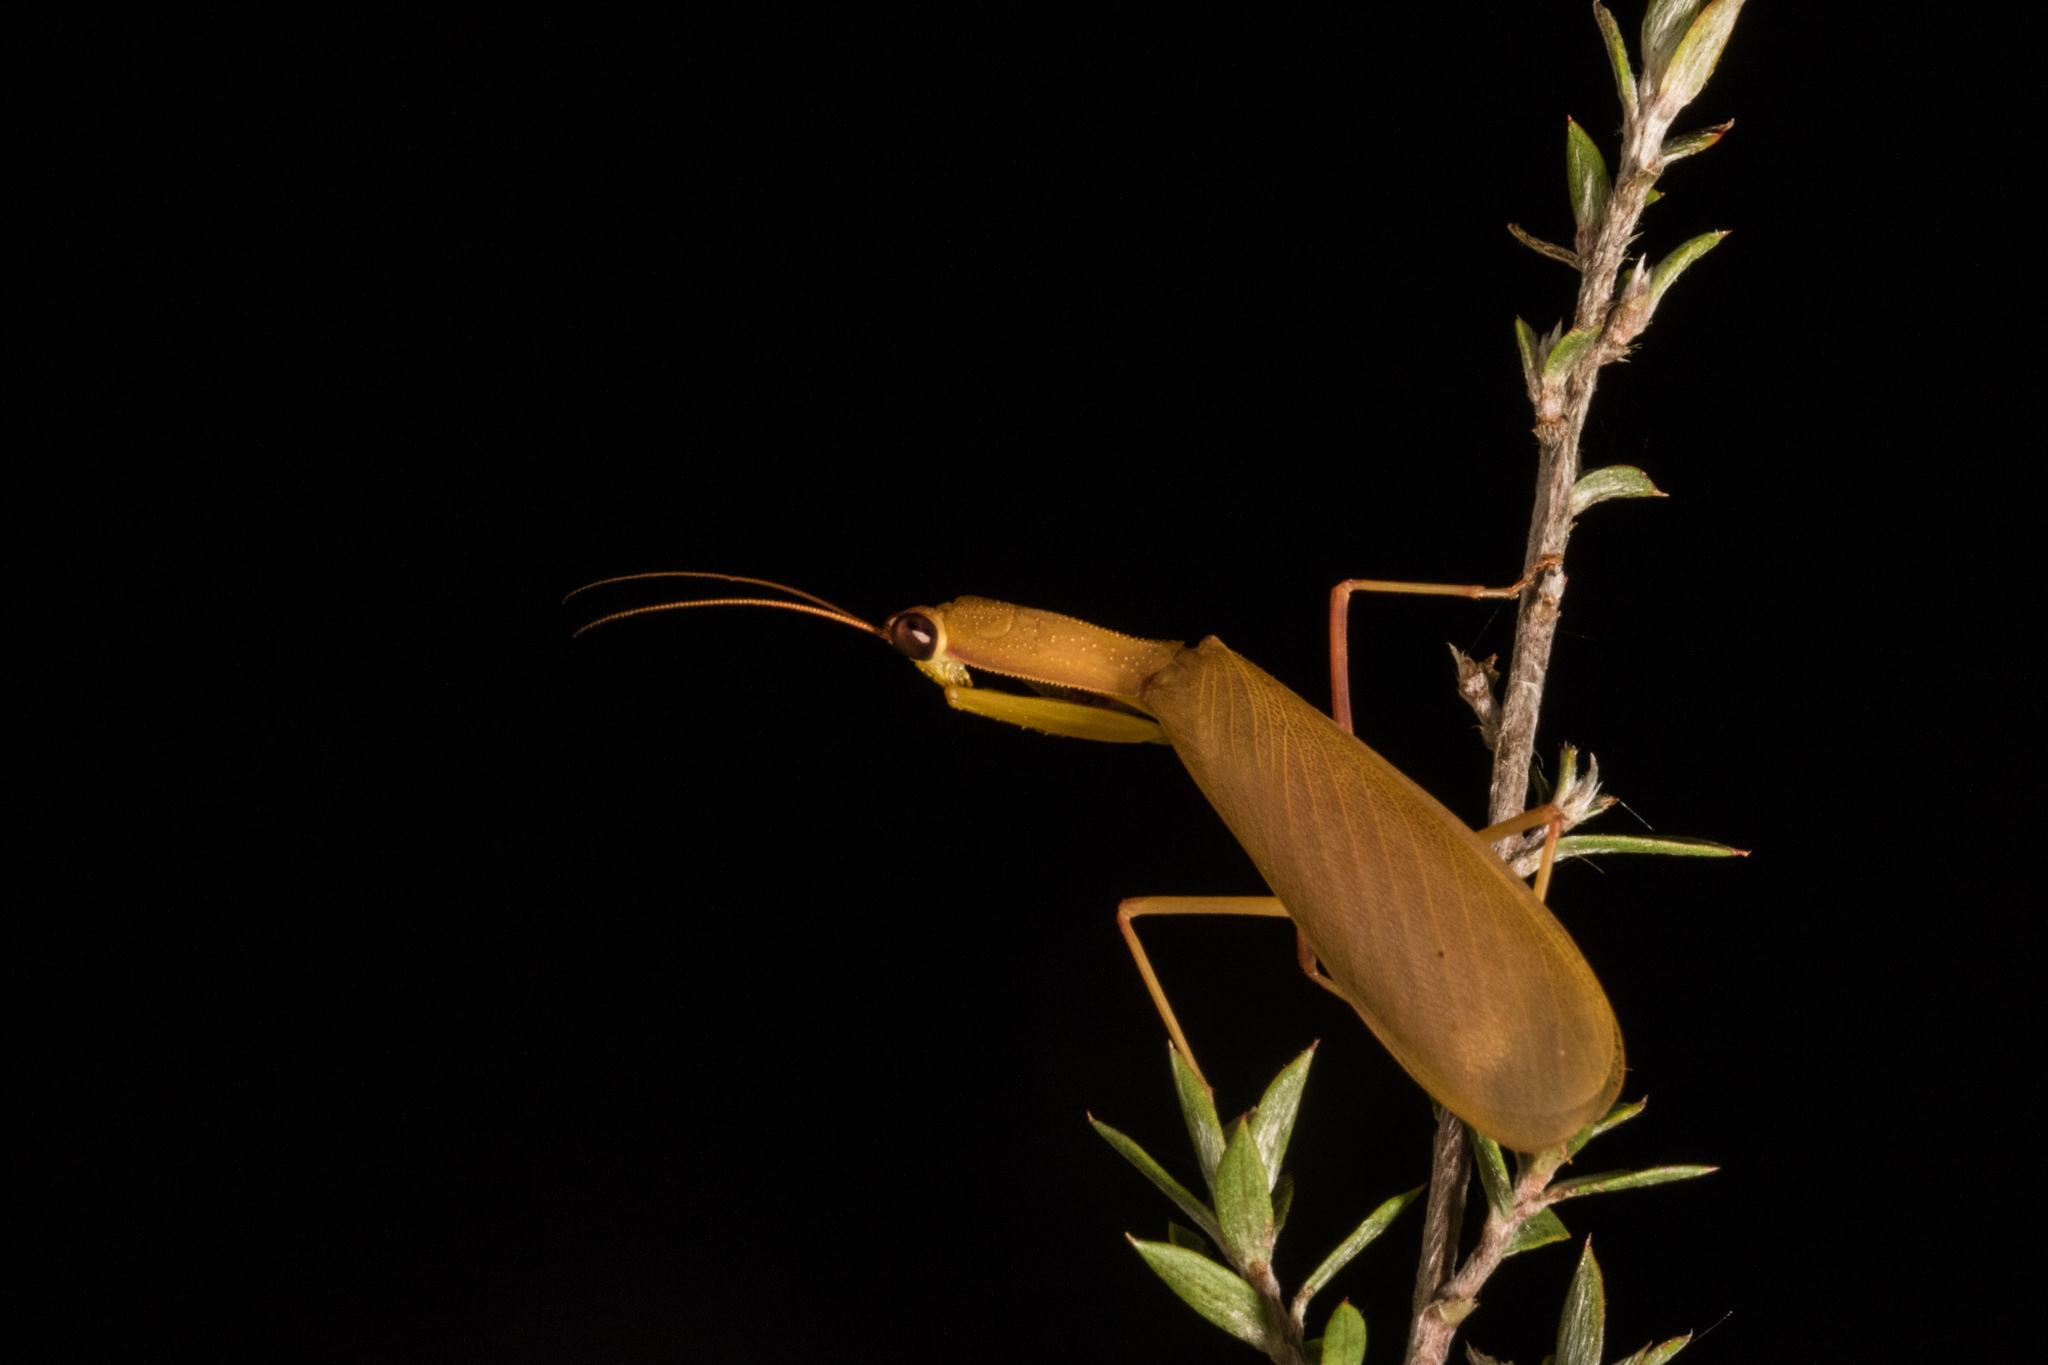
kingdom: Animalia
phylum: Arthropoda
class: Insecta
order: Mantodea
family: Mantidae
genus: Orthodera
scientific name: Orthodera novaezealandiae
